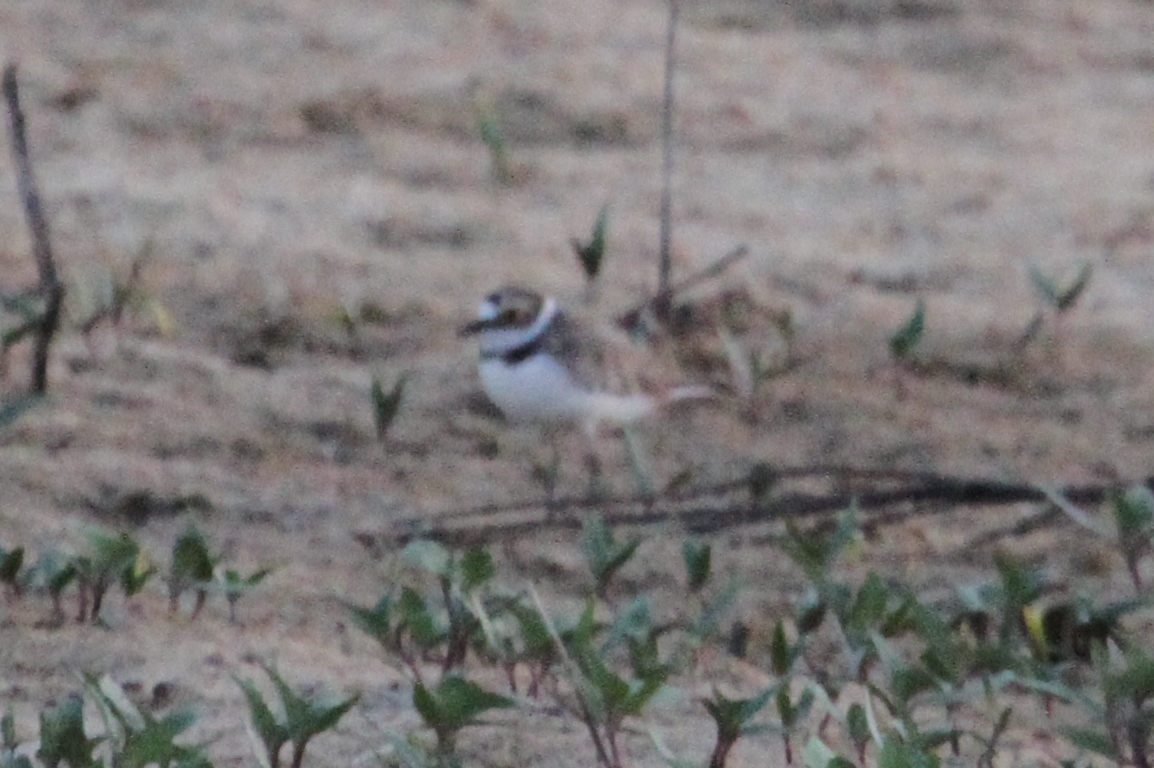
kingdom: Animalia
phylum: Chordata
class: Aves
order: Charadriiformes
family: Charadriidae
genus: Charadrius
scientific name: Charadrius dubius
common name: Little ringed plover
